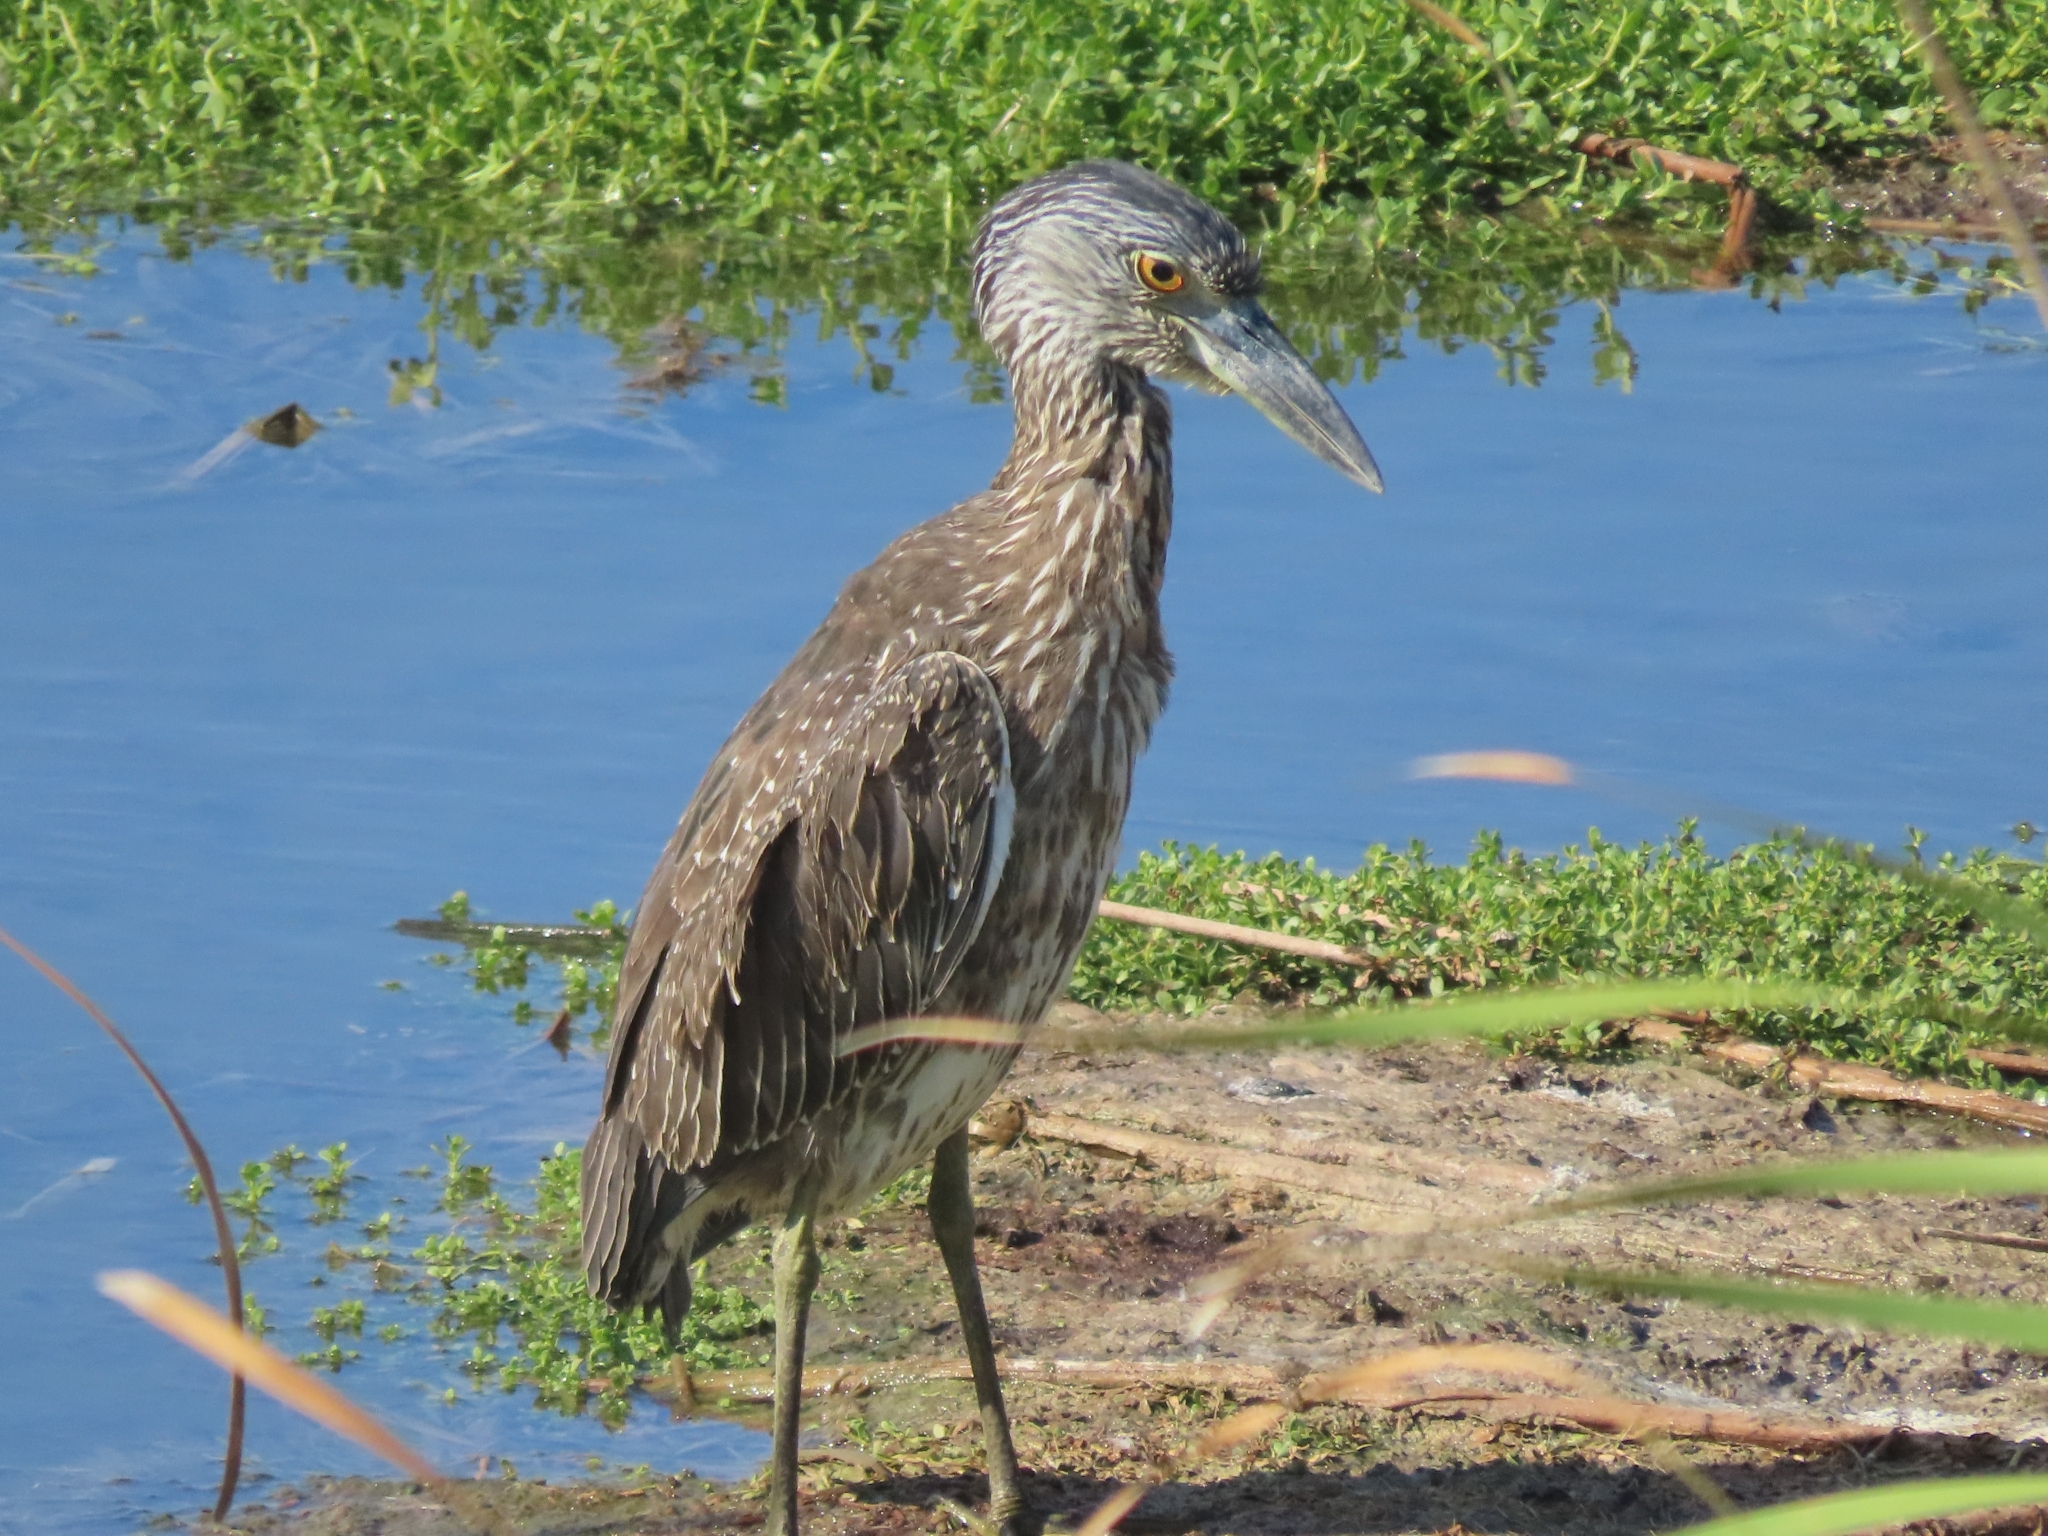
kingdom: Animalia
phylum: Chordata
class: Aves
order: Pelecaniformes
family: Ardeidae
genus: Nyctanassa
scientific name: Nyctanassa violacea
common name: Yellow-crowned night heron
